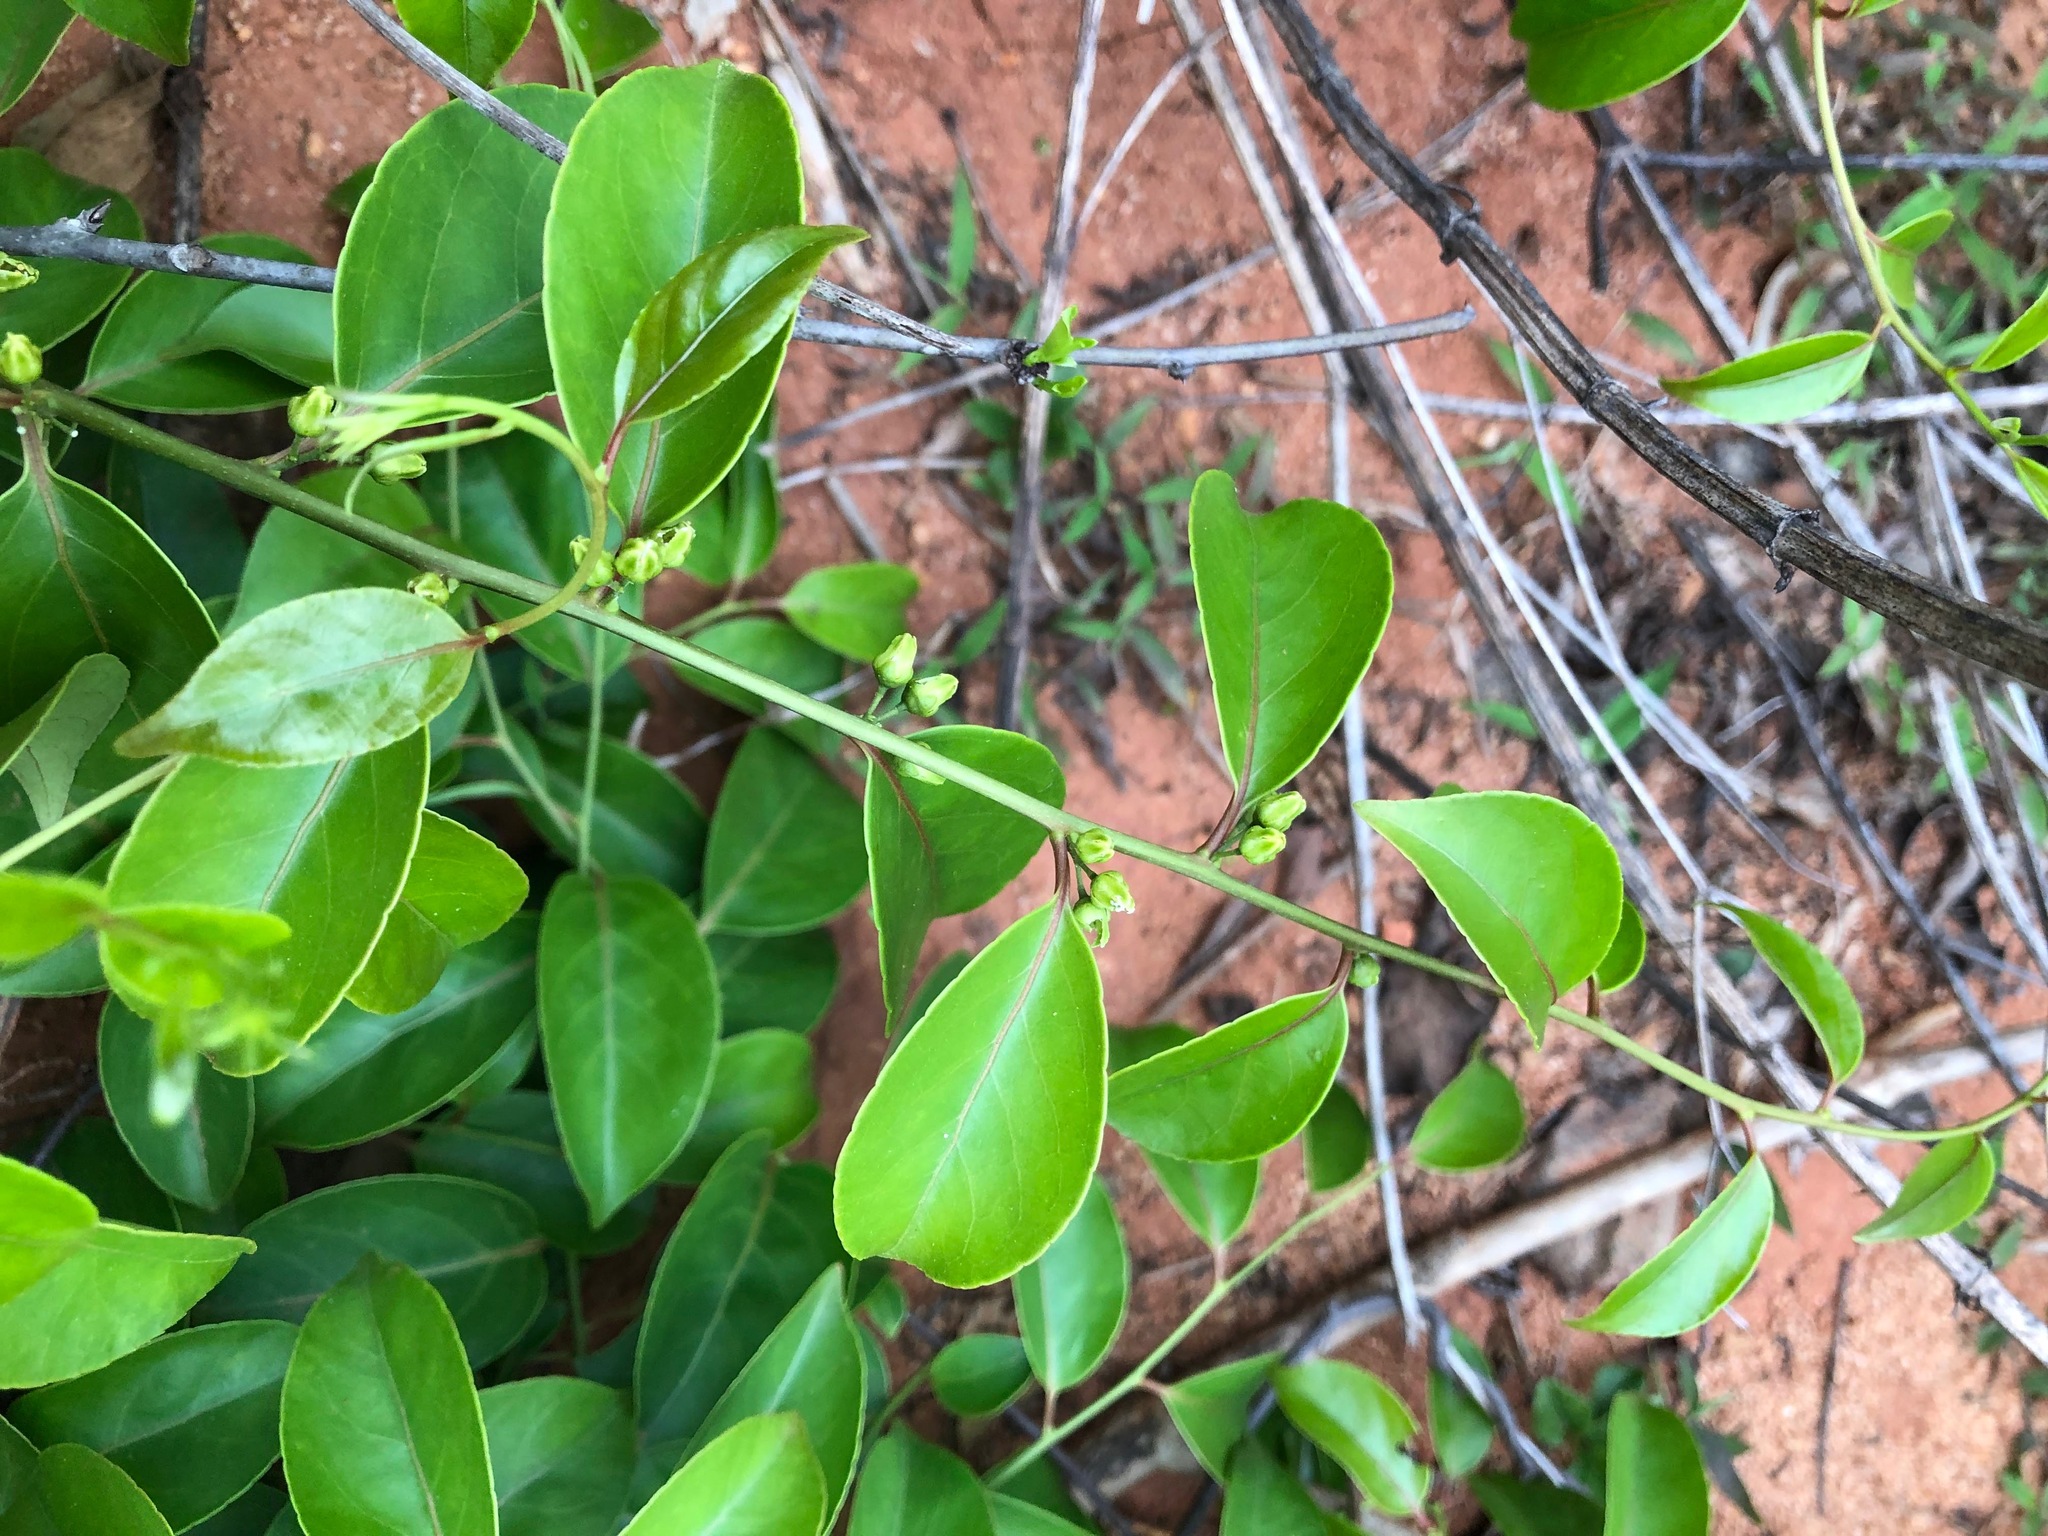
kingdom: Plantae
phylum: Tracheophyta
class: Magnoliopsida
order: Celastrales
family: Celastraceae
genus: Celastrus
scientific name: Celastrus aculeatus
